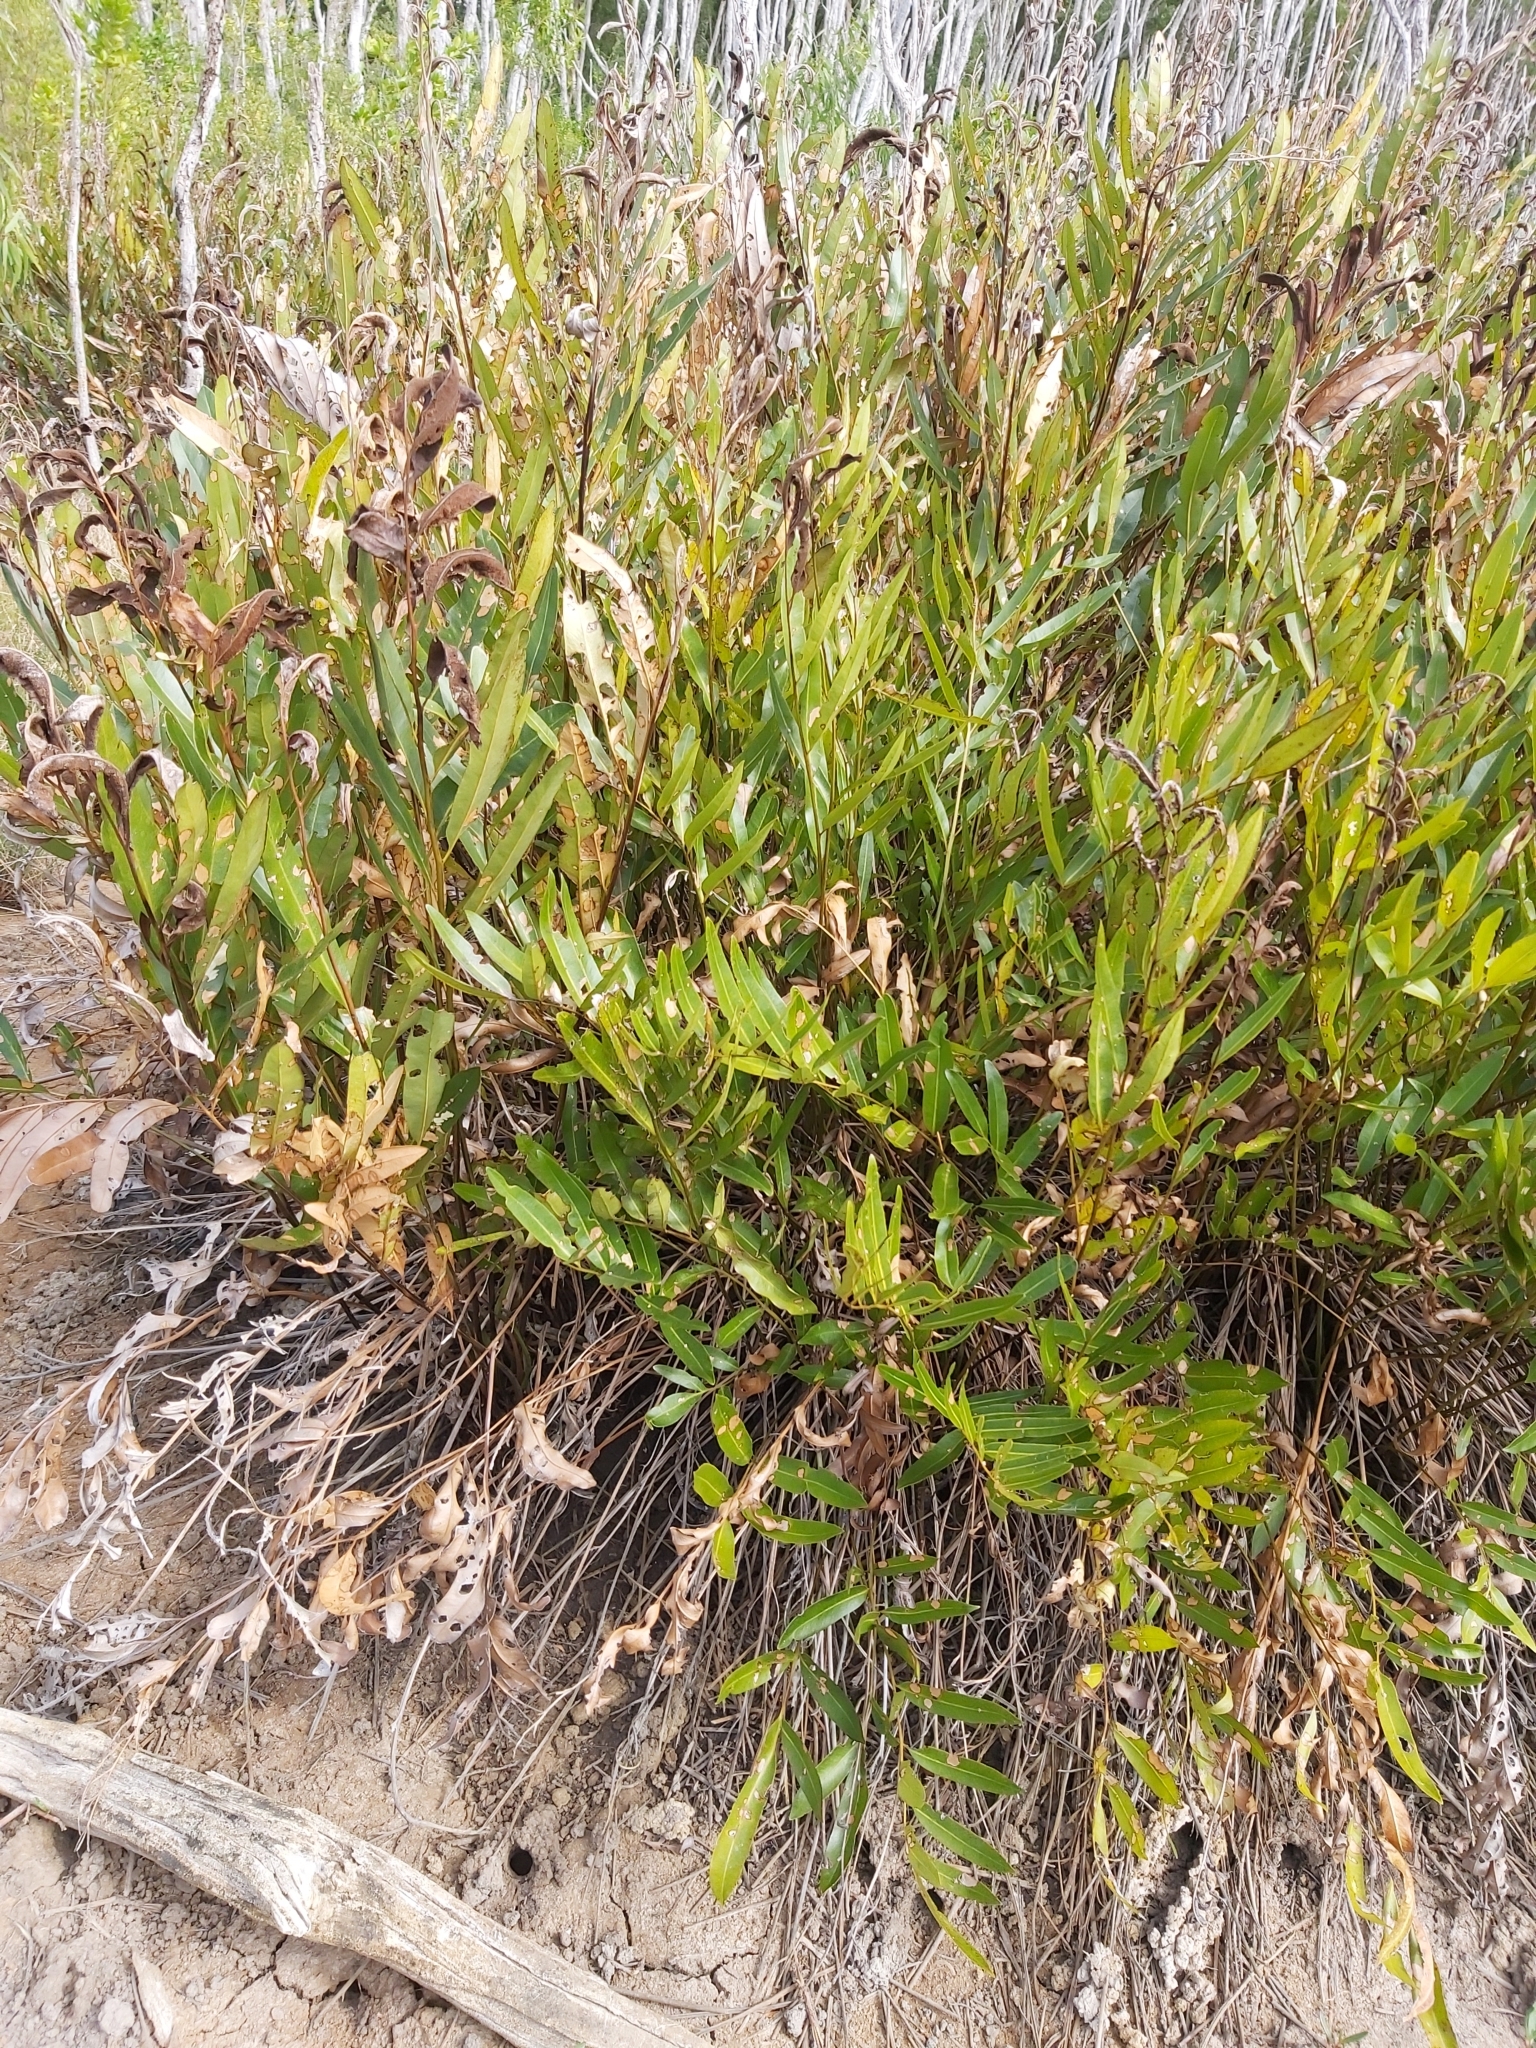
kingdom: Plantae
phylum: Tracheophyta
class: Polypodiopsida
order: Polypodiales
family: Pteridaceae
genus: Acrostichum
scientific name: Acrostichum speciosum
